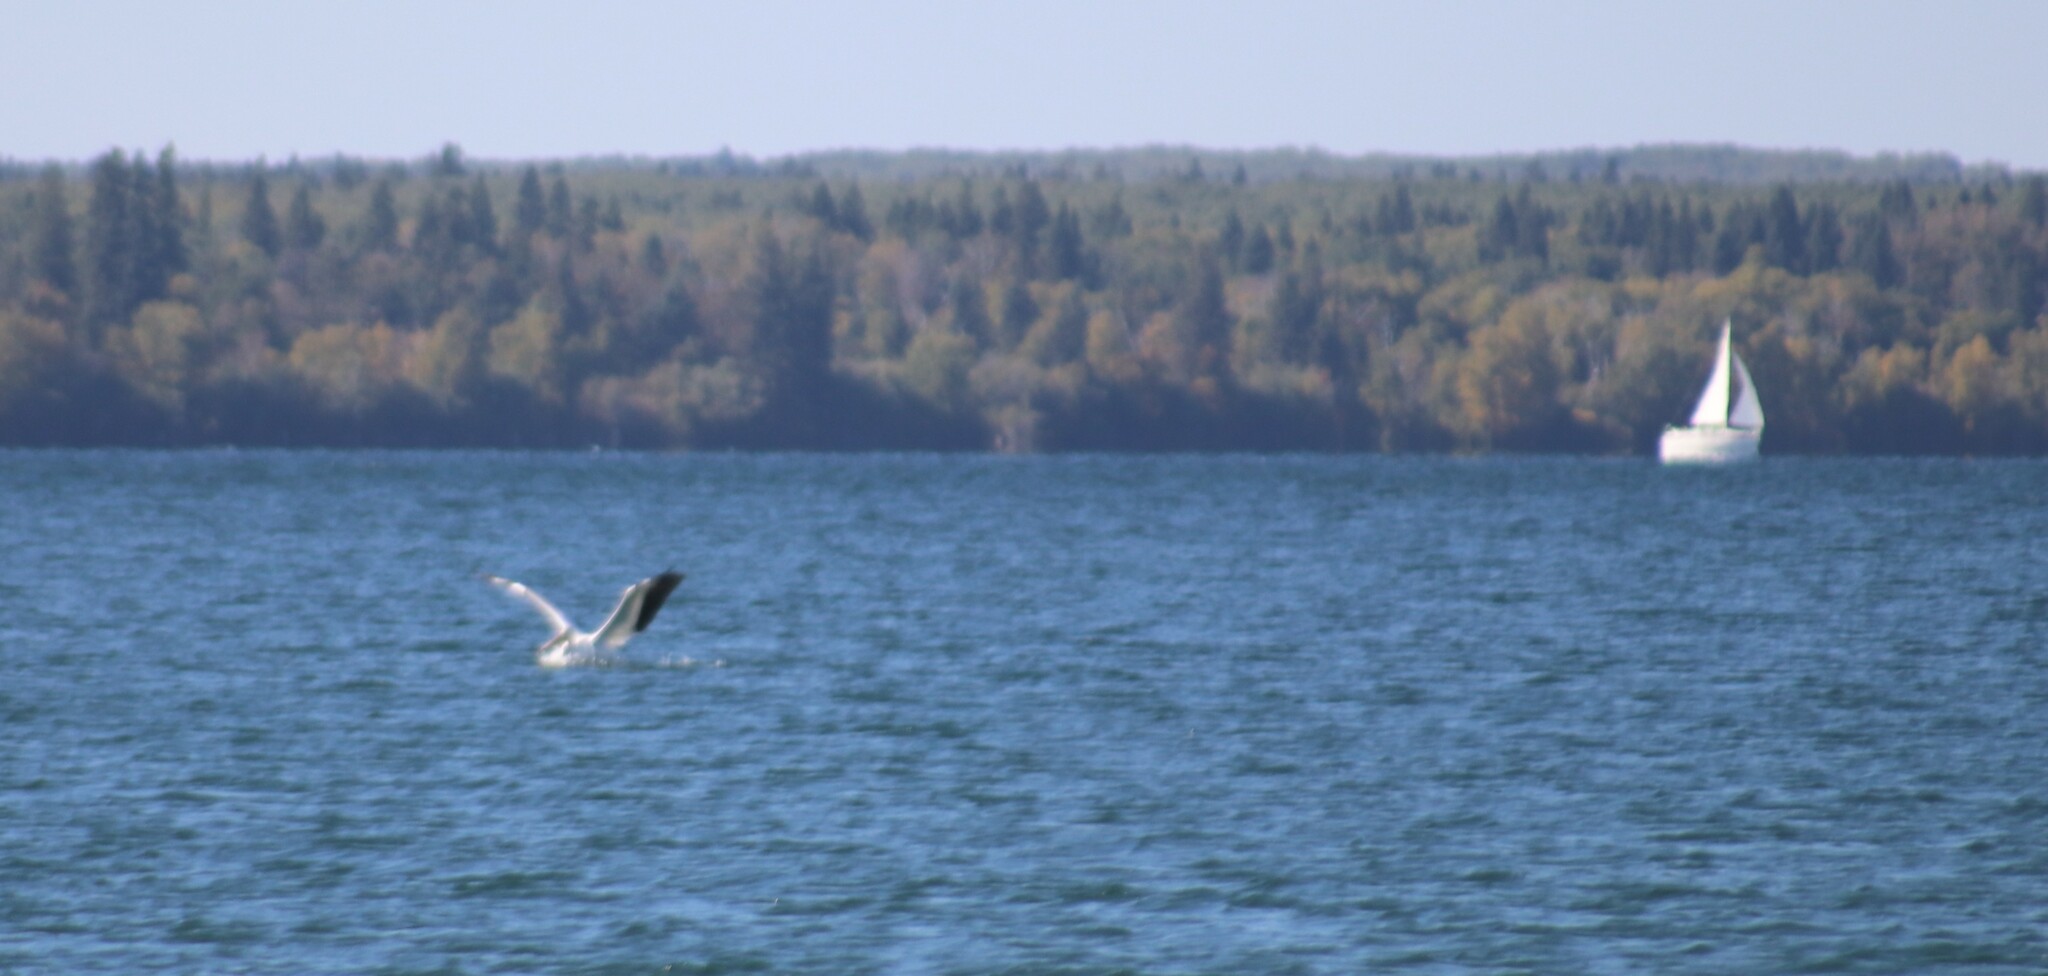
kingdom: Animalia
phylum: Chordata
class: Aves
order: Pelecaniformes
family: Pelecanidae
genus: Pelecanus
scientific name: Pelecanus erythrorhynchos
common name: American white pelican
